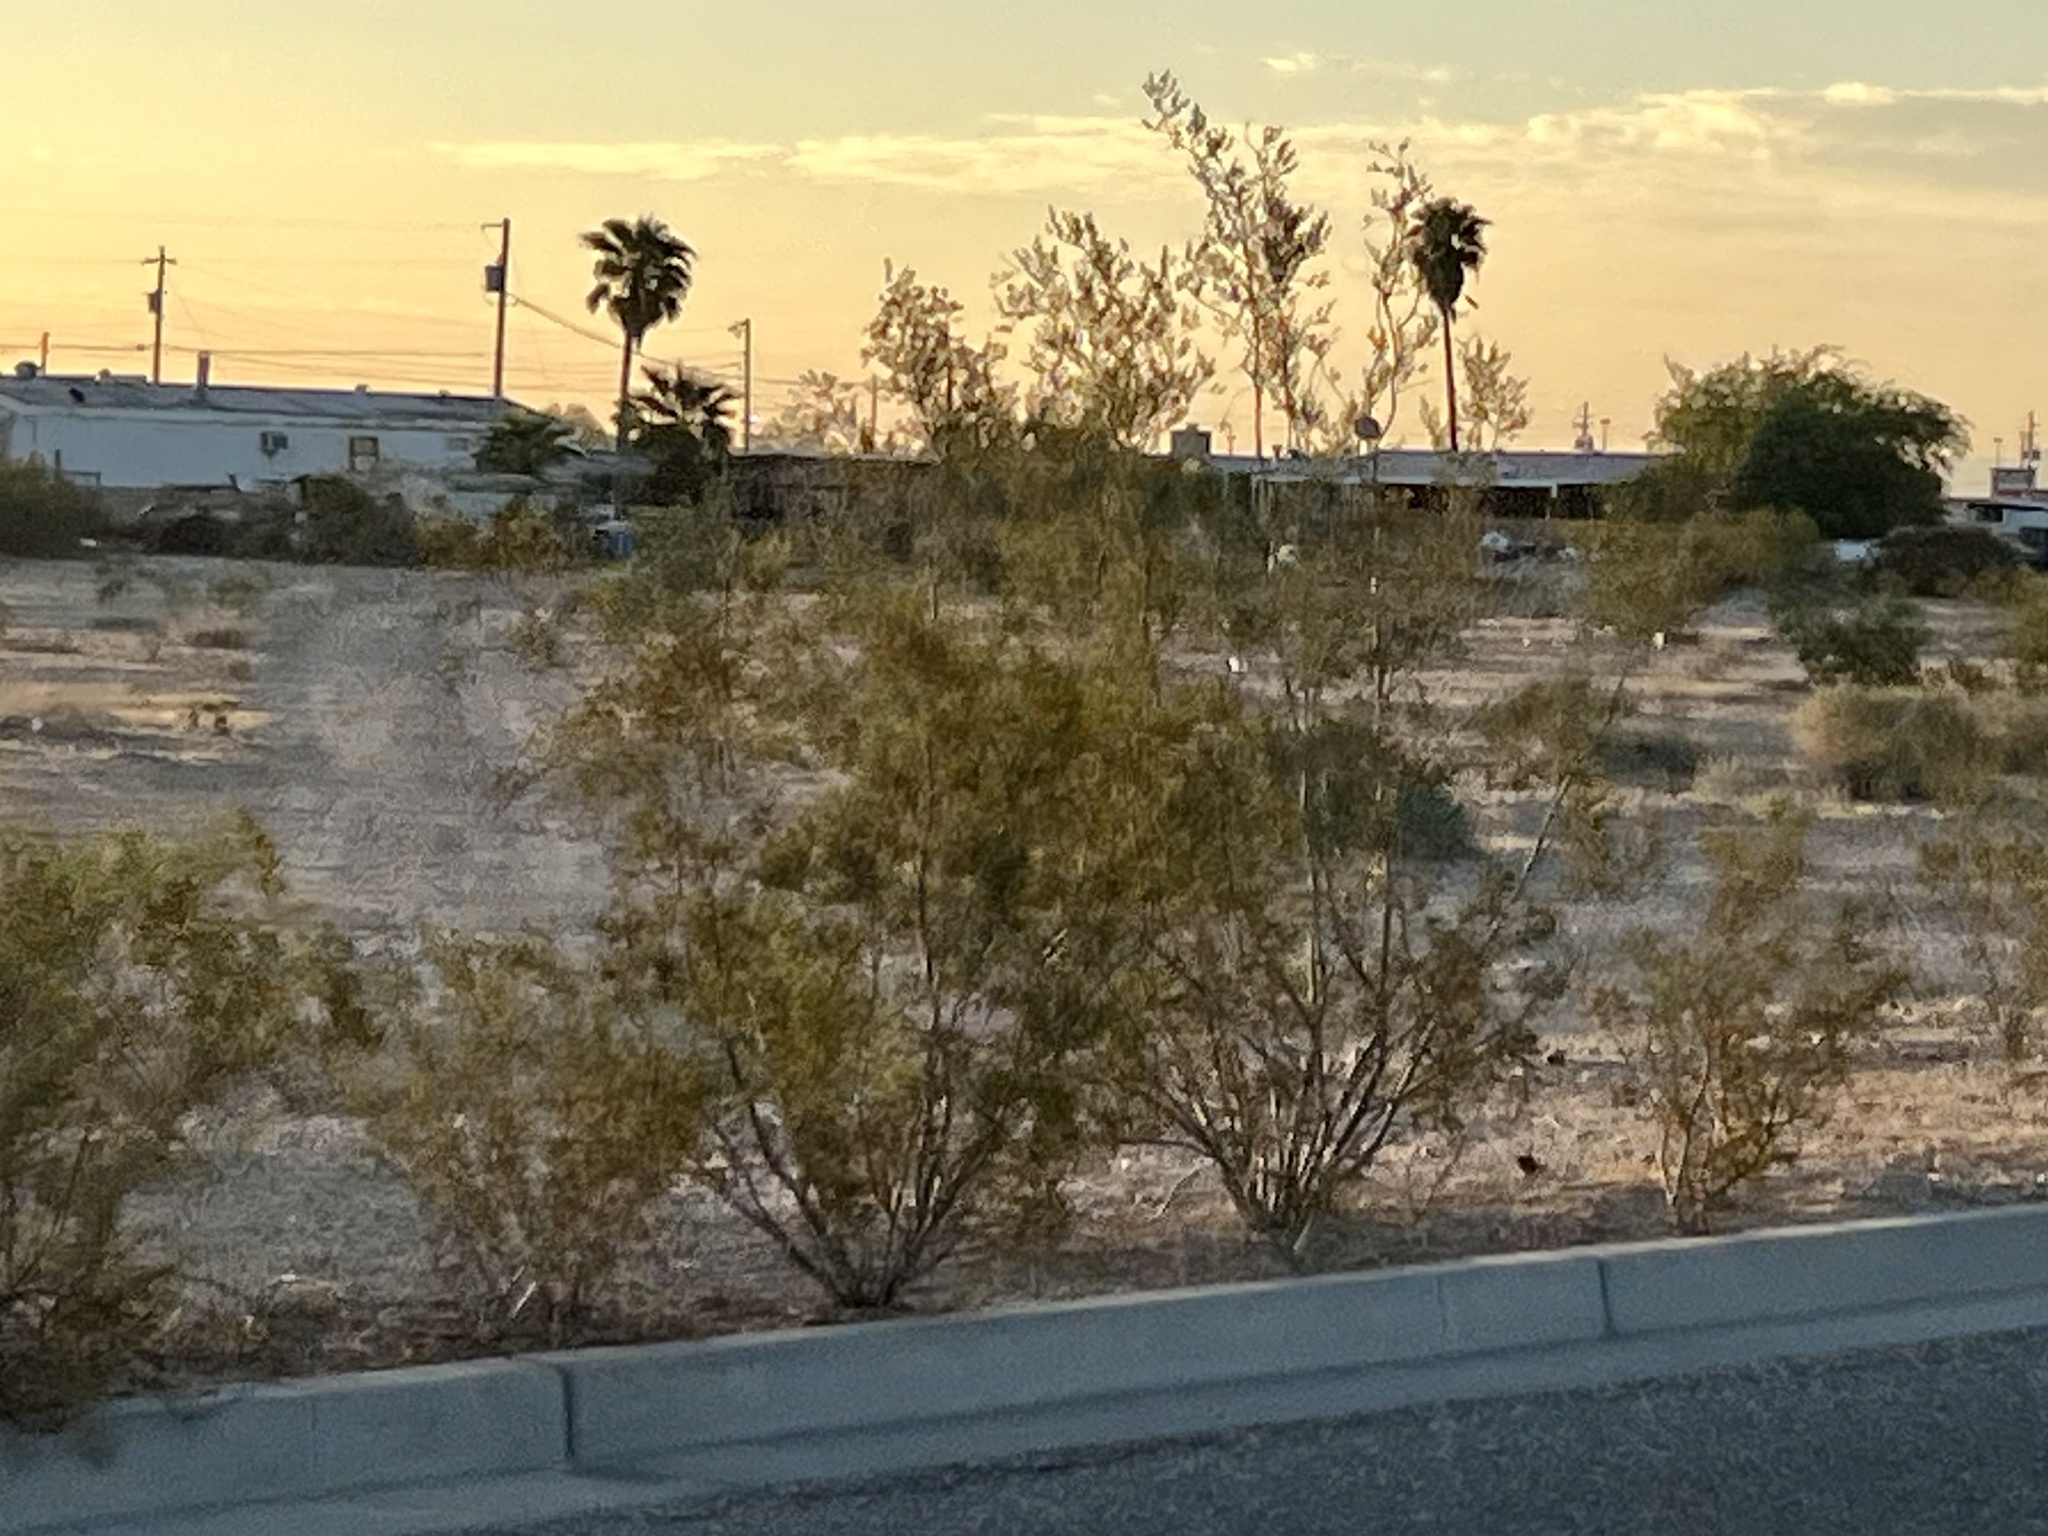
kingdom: Plantae
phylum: Tracheophyta
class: Magnoliopsida
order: Zygophyllales
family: Zygophyllaceae
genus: Larrea
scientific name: Larrea tridentata
